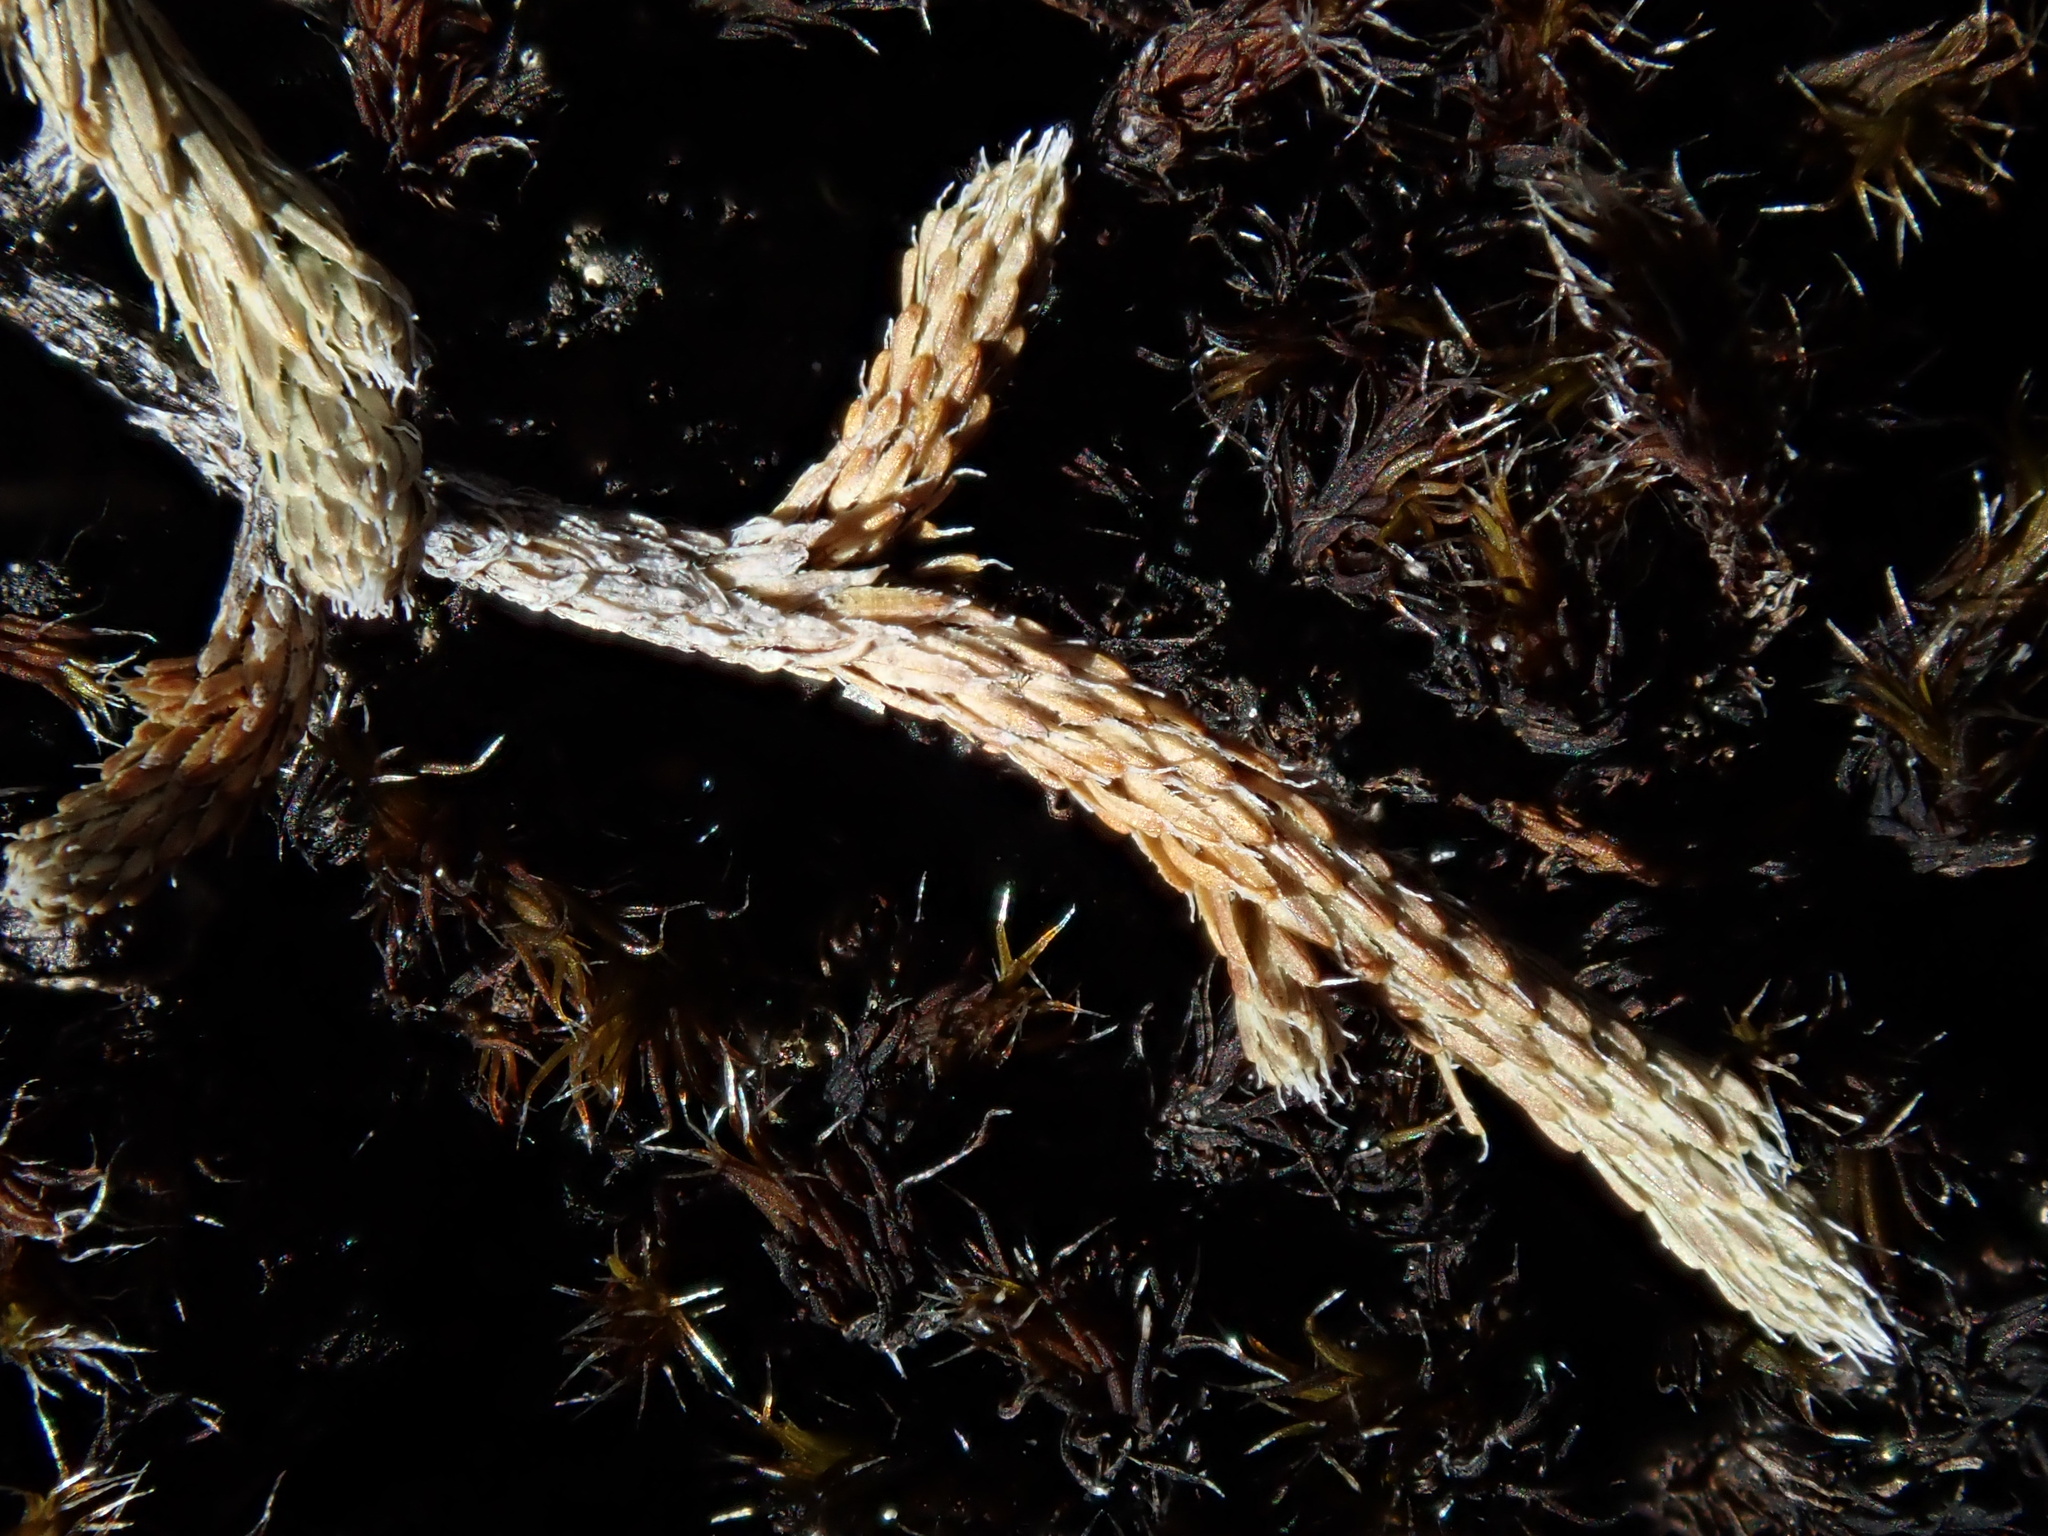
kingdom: Plantae
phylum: Tracheophyta
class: Lycopodiopsida
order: Selaginellales
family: Selaginellaceae
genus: Selaginella
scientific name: Selaginella wallacei
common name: Wallace's selaginella
